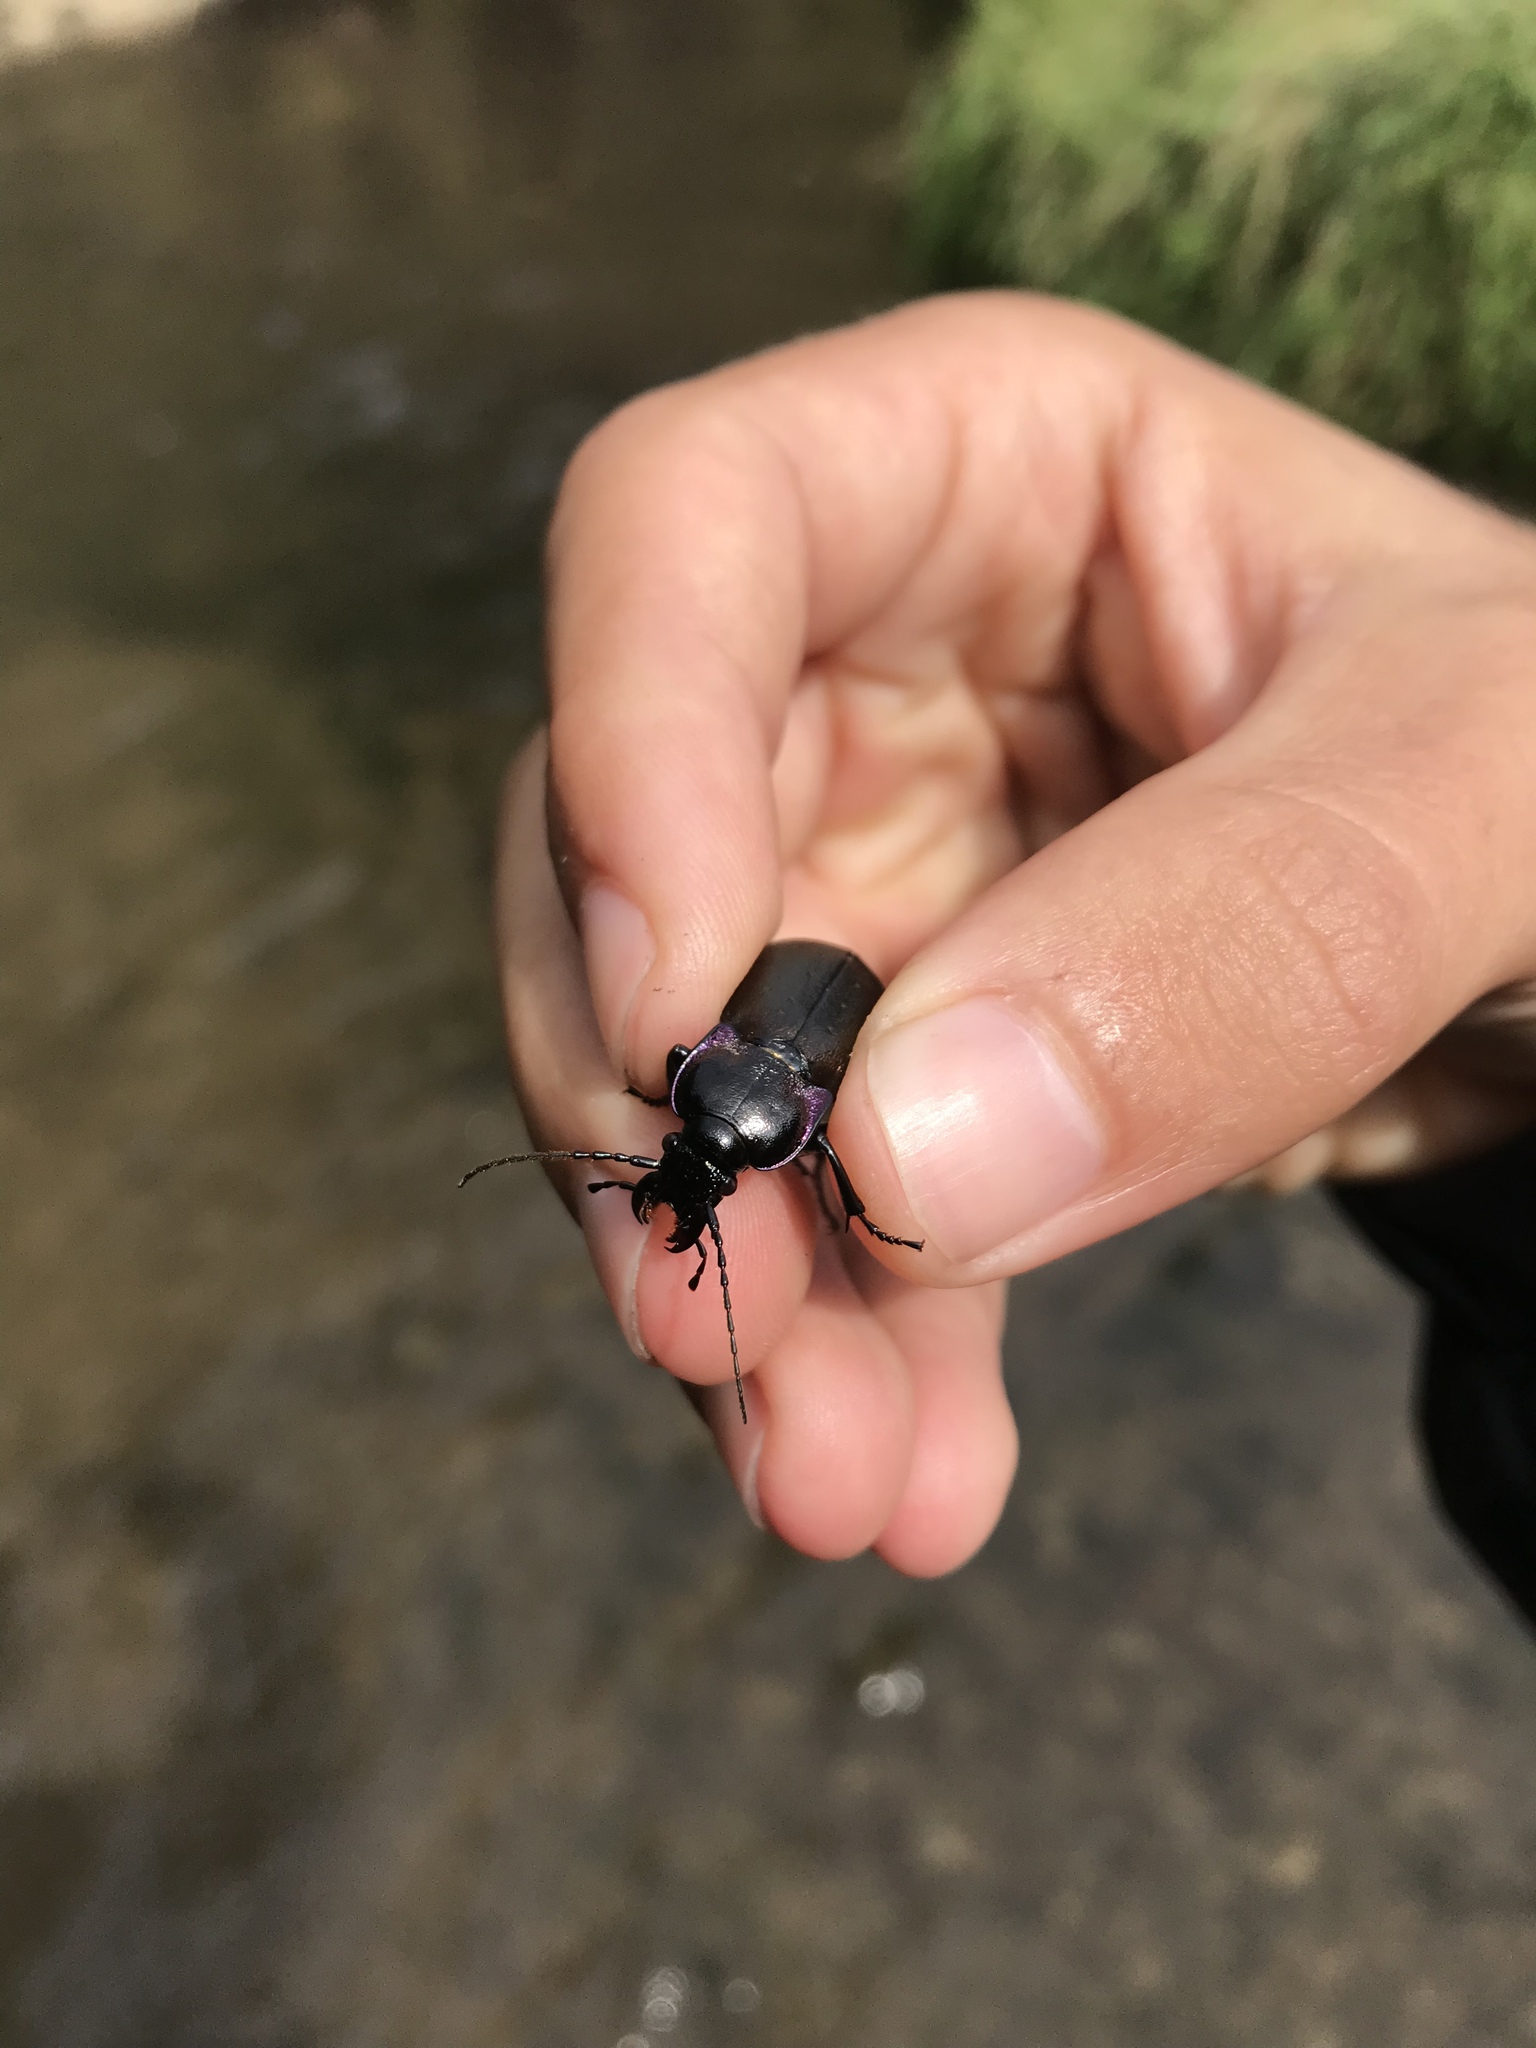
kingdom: Animalia
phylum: Arthropoda
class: Insecta
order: Coleoptera
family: Carabidae
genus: Carabus
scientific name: Carabus nemoralis
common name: European ground beetle
